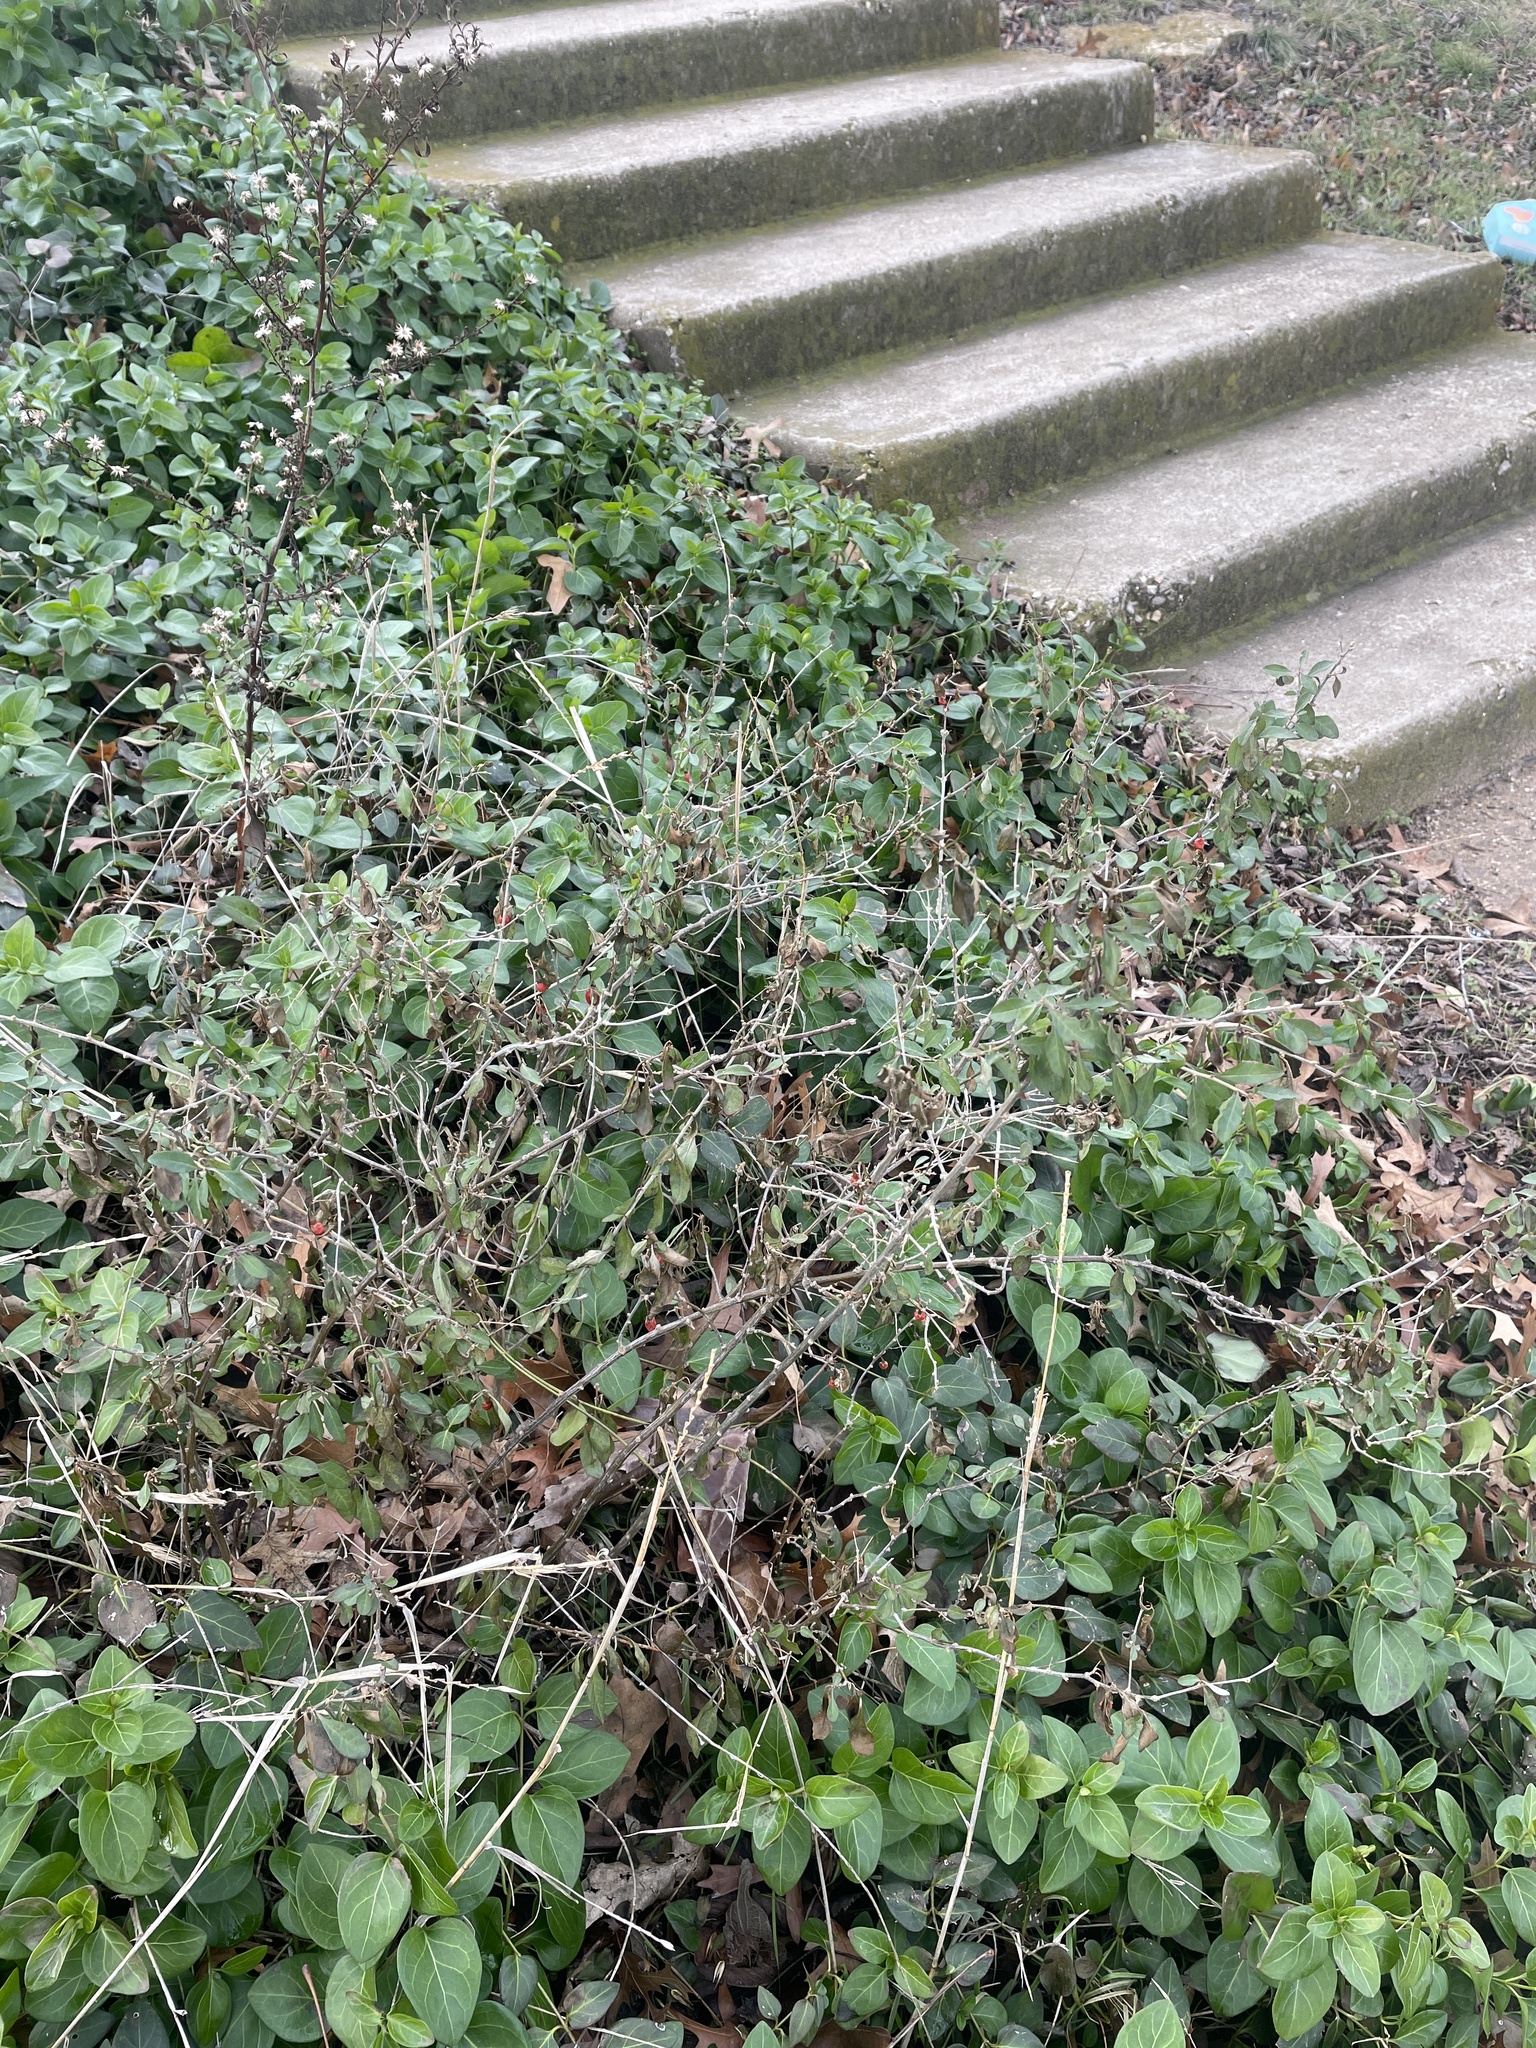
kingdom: Plantae
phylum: Tracheophyta
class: Magnoliopsida
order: Solanales
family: Solanaceae
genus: Lycium
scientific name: Lycium barbarum
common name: Duke of argyll's teaplant
